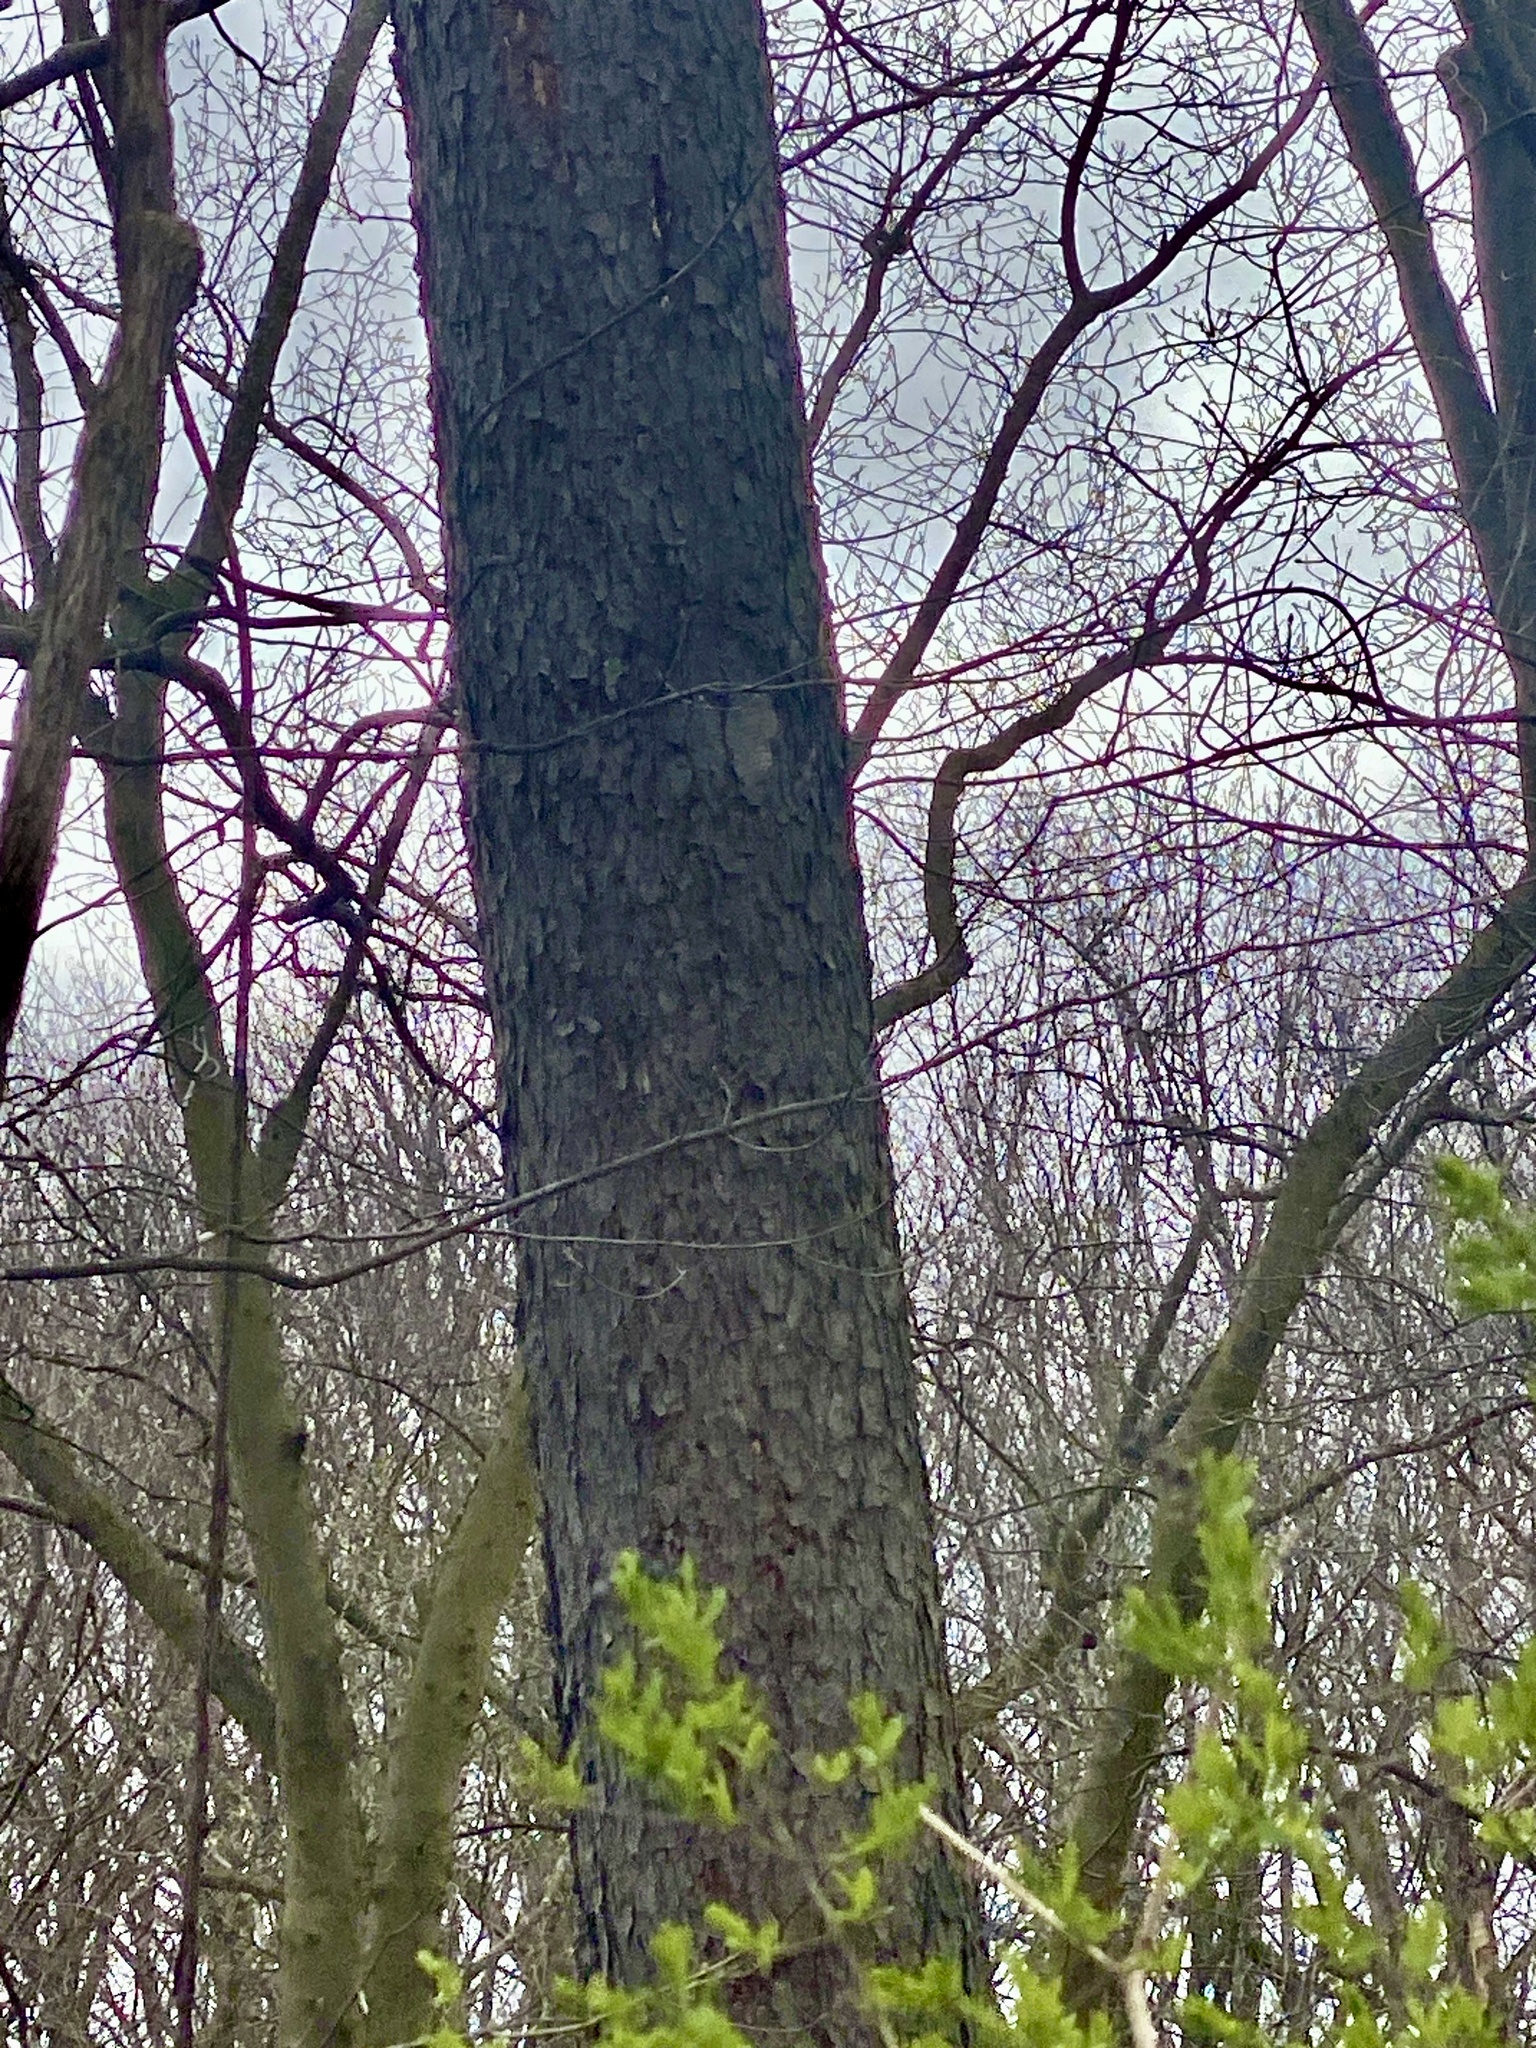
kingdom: Plantae
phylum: Tracheophyta
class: Magnoliopsida
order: Rosales
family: Rosaceae
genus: Prunus
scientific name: Prunus serotina
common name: Black cherry
